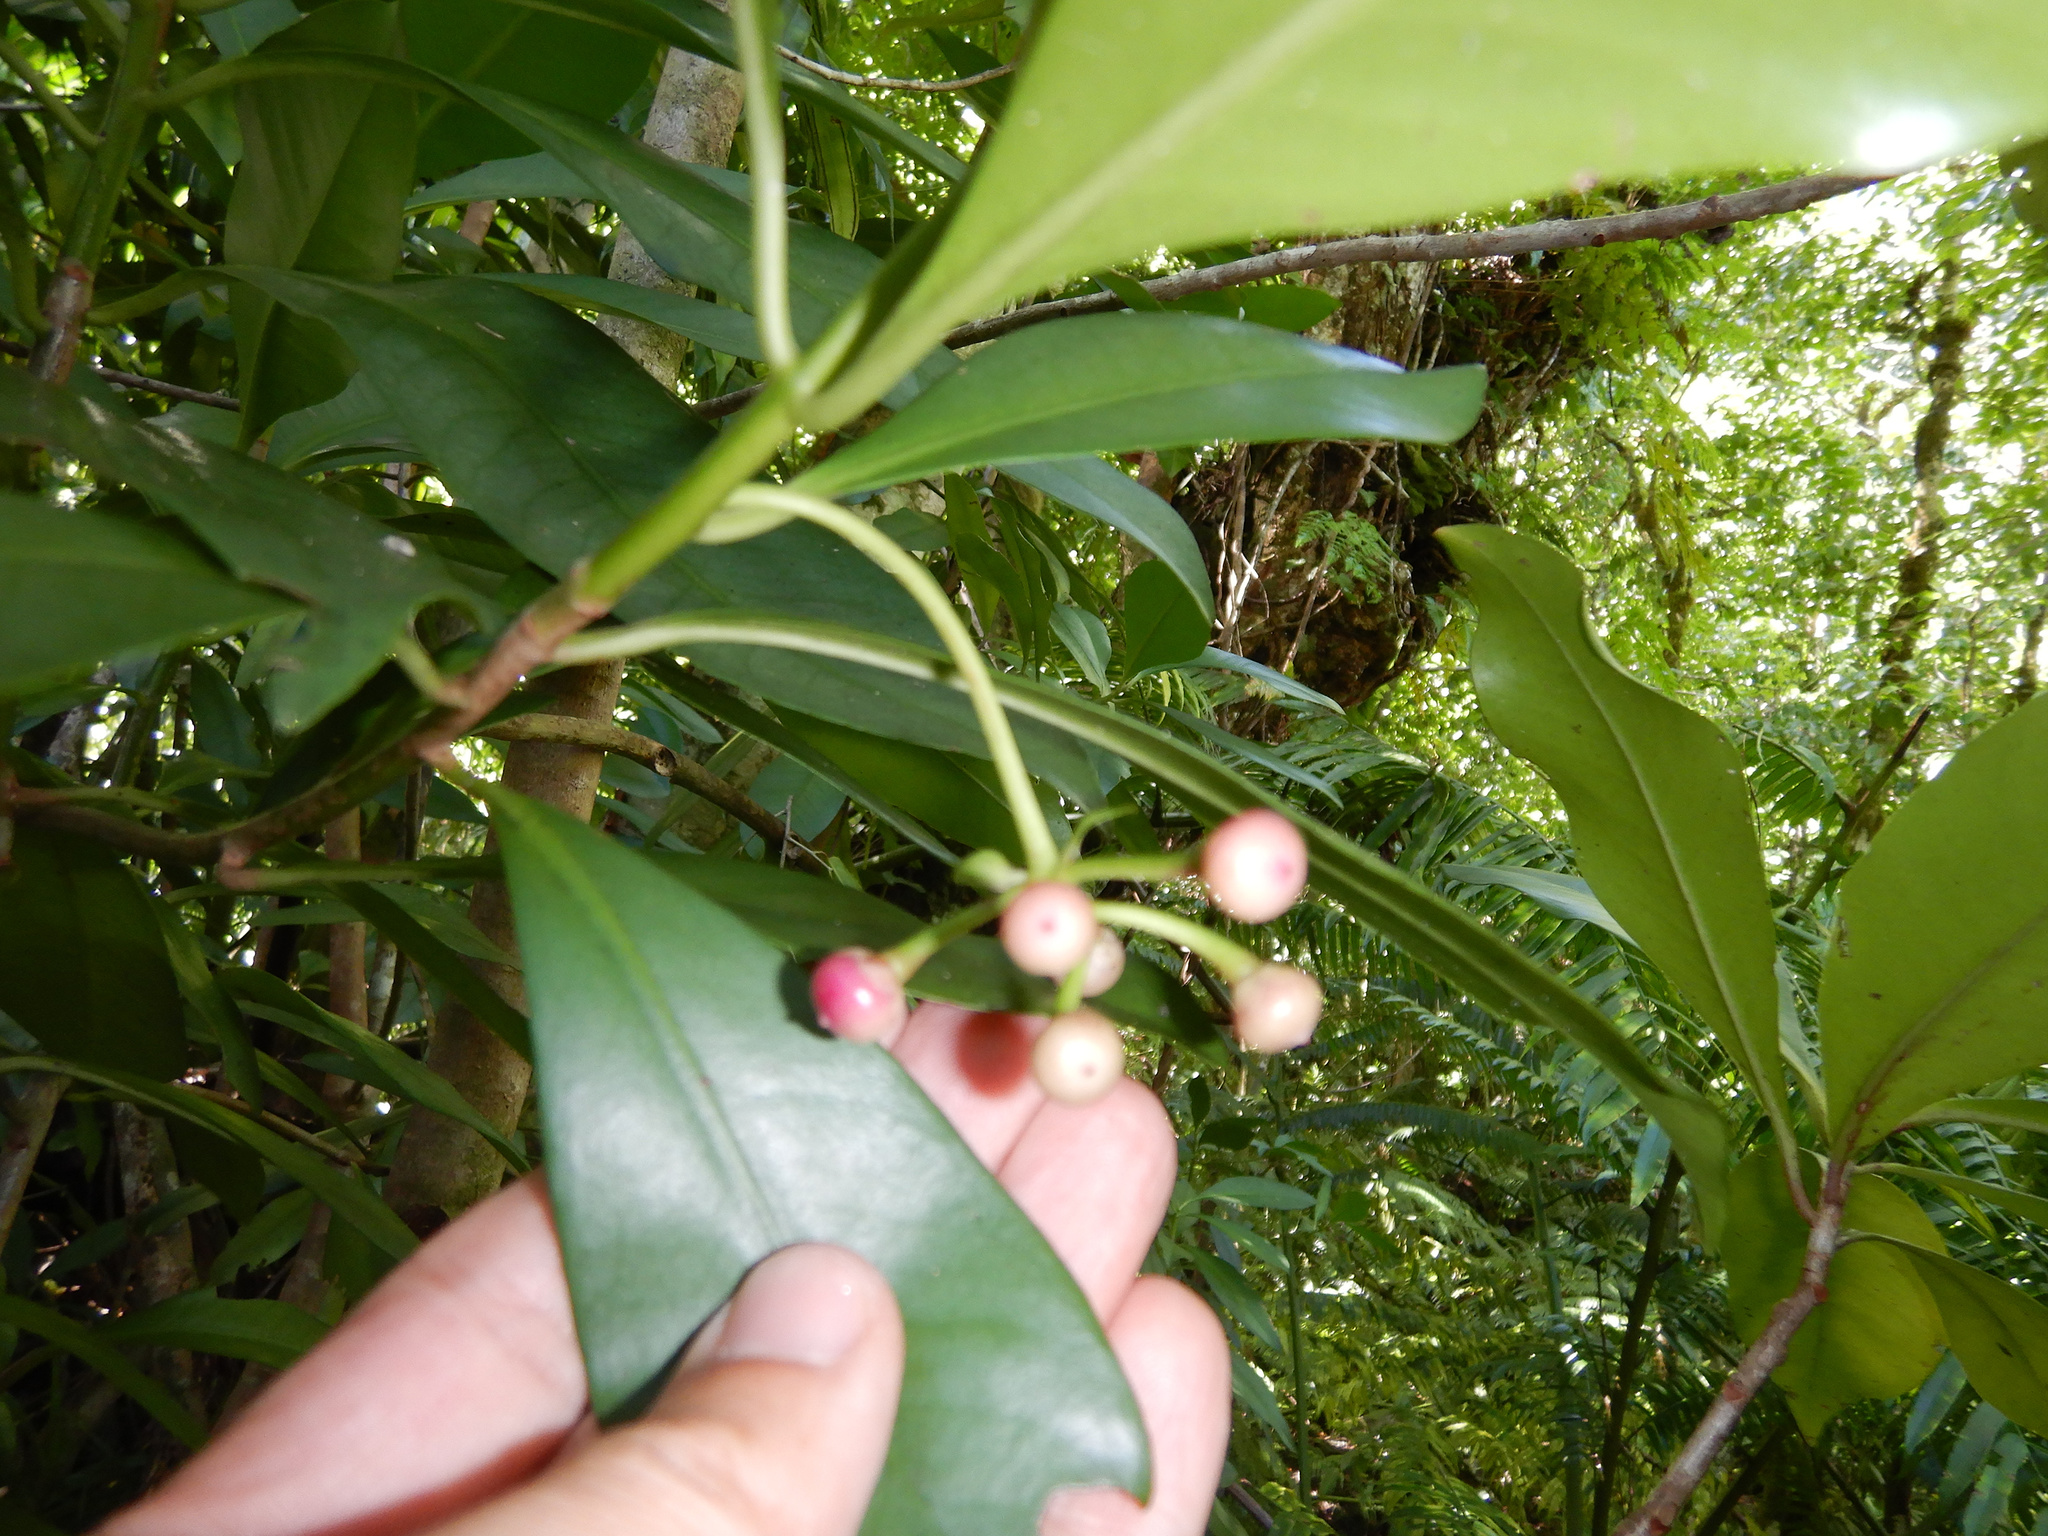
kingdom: Plantae
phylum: Tracheophyta
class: Magnoliopsida
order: Ericales
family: Primulaceae
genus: Ardisia
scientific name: Ardisia elliptica
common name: Shoebutton
